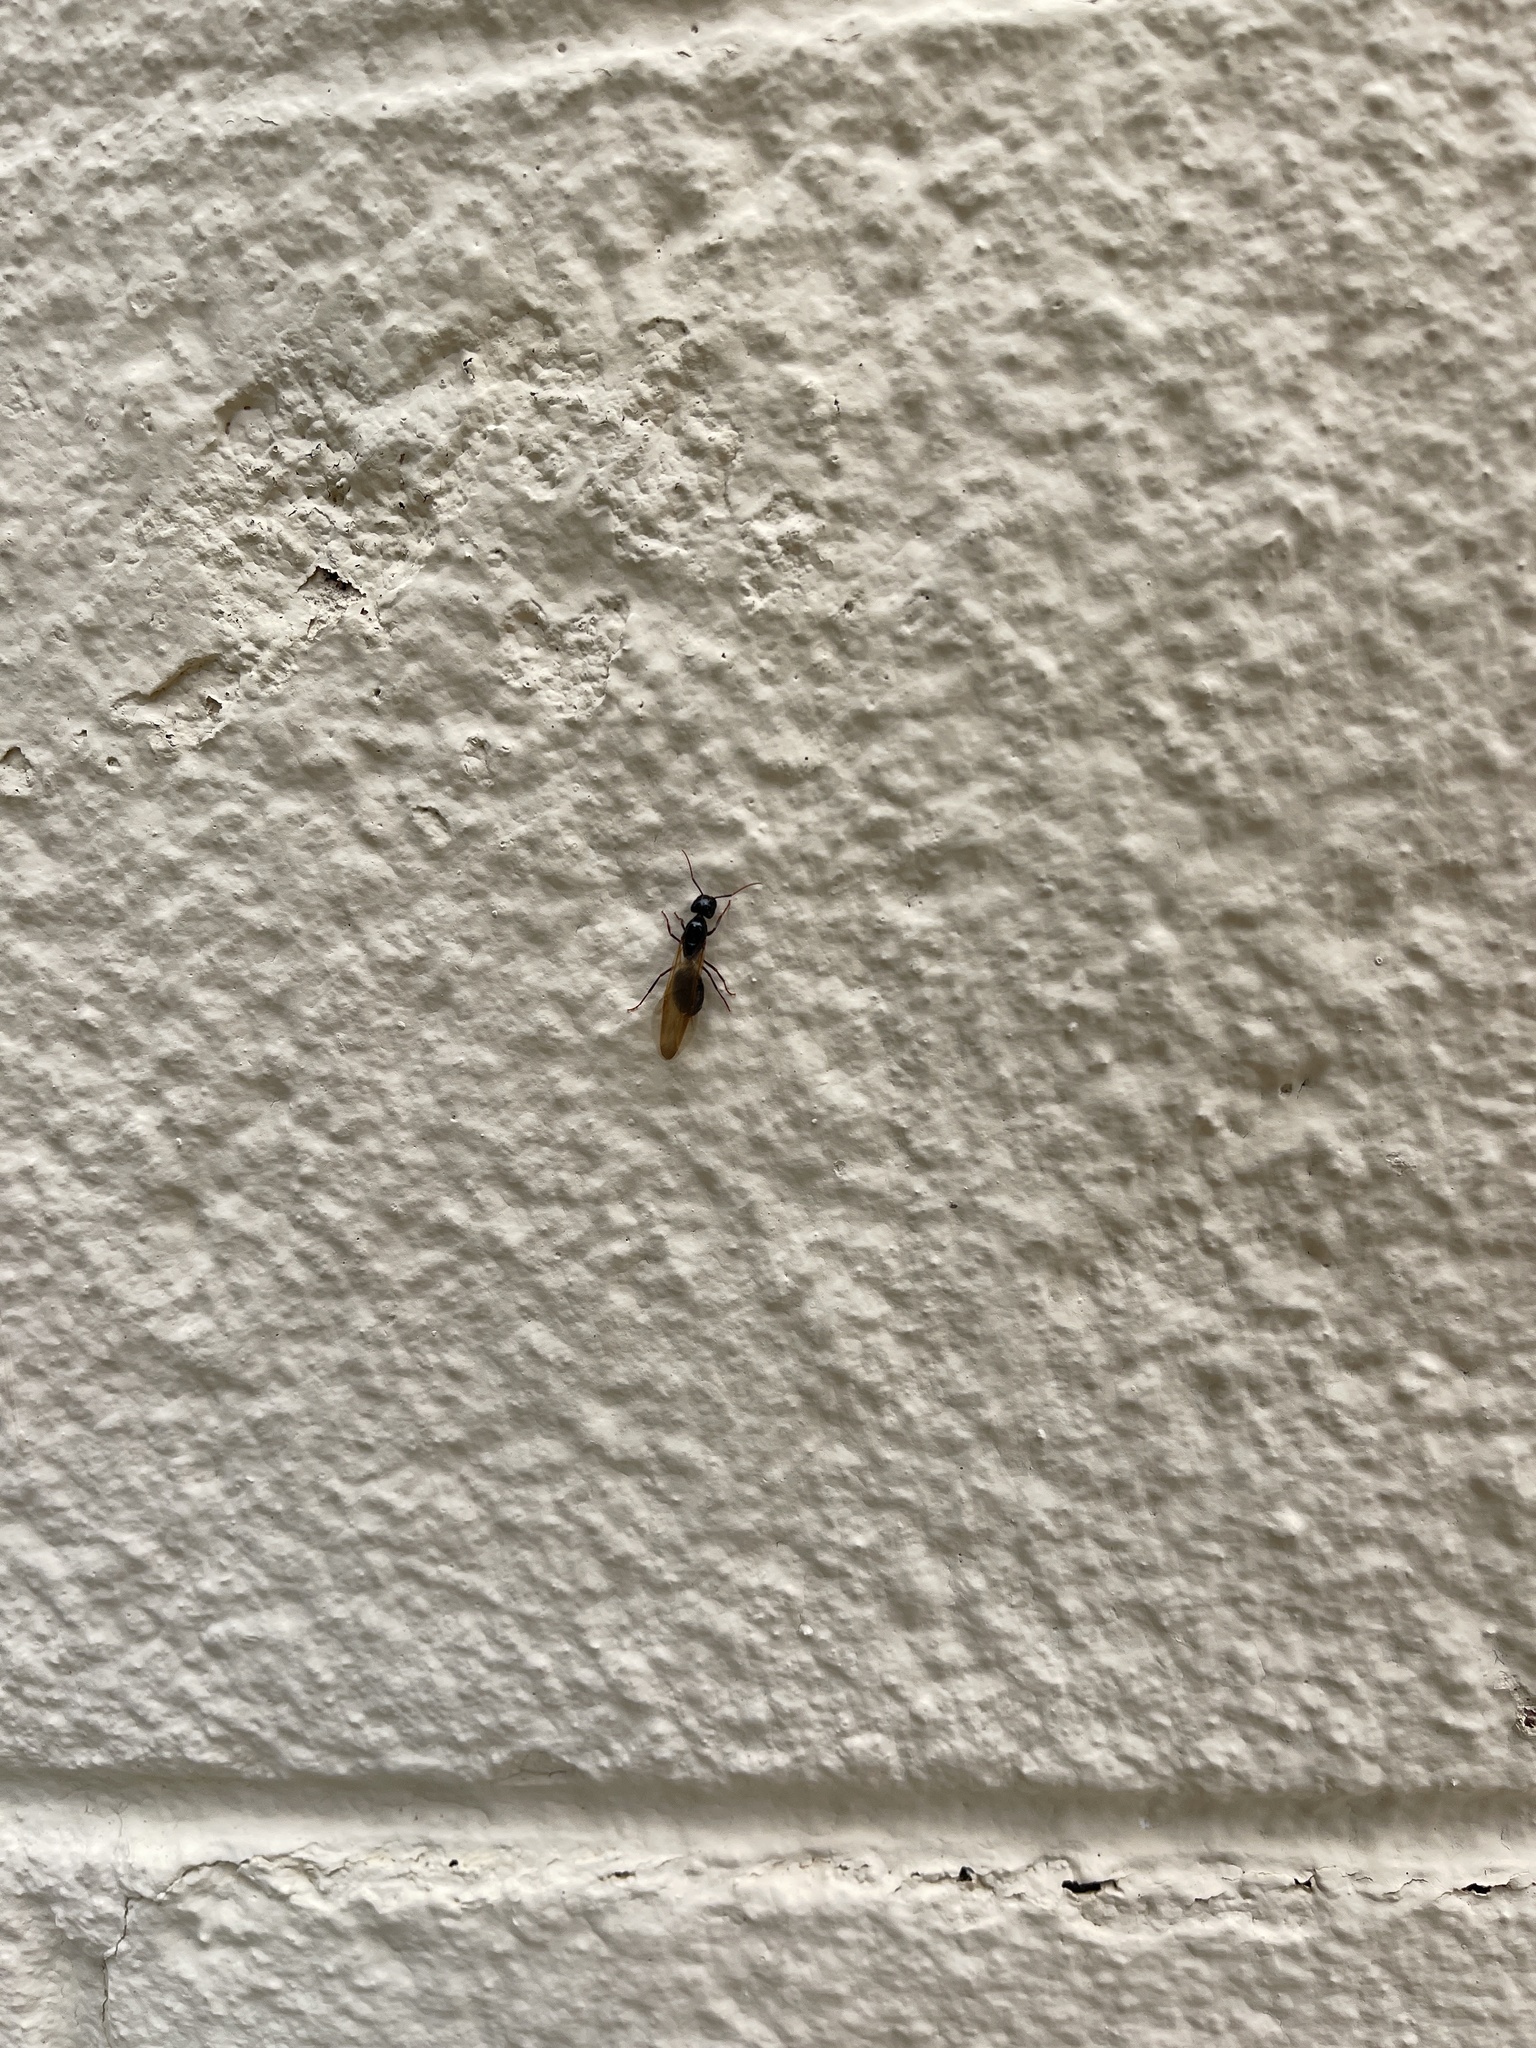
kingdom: Animalia
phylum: Arthropoda
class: Insecta
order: Hymenoptera
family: Formicidae
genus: Camponotus
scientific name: Camponotus modoc
